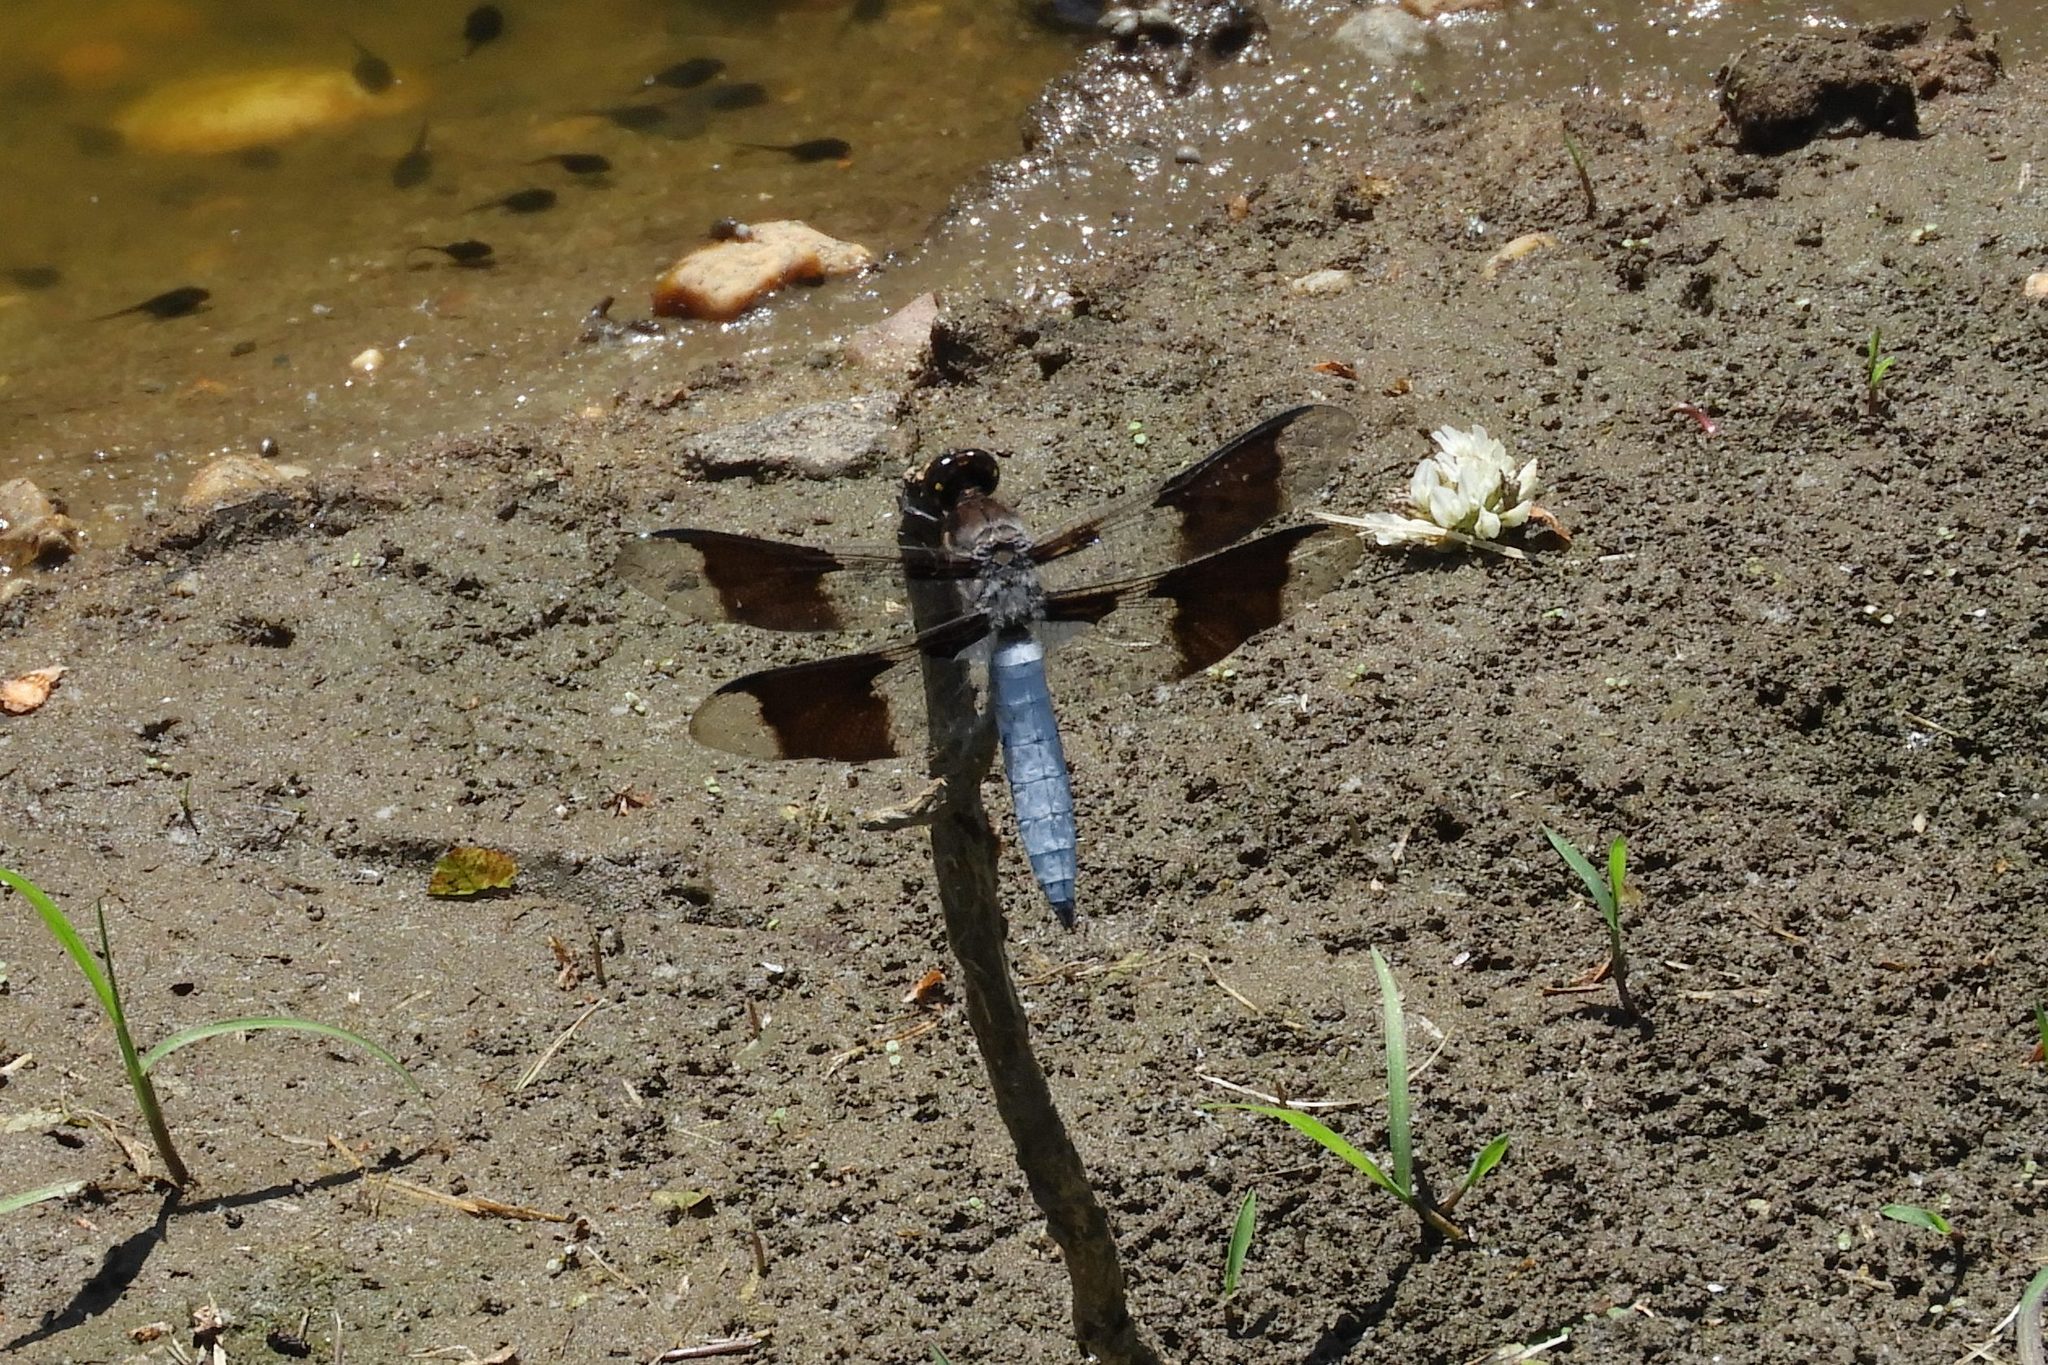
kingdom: Animalia
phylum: Arthropoda
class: Insecta
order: Odonata
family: Libellulidae
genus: Plathemis
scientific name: Plathemis lydia
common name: Common whitetail
